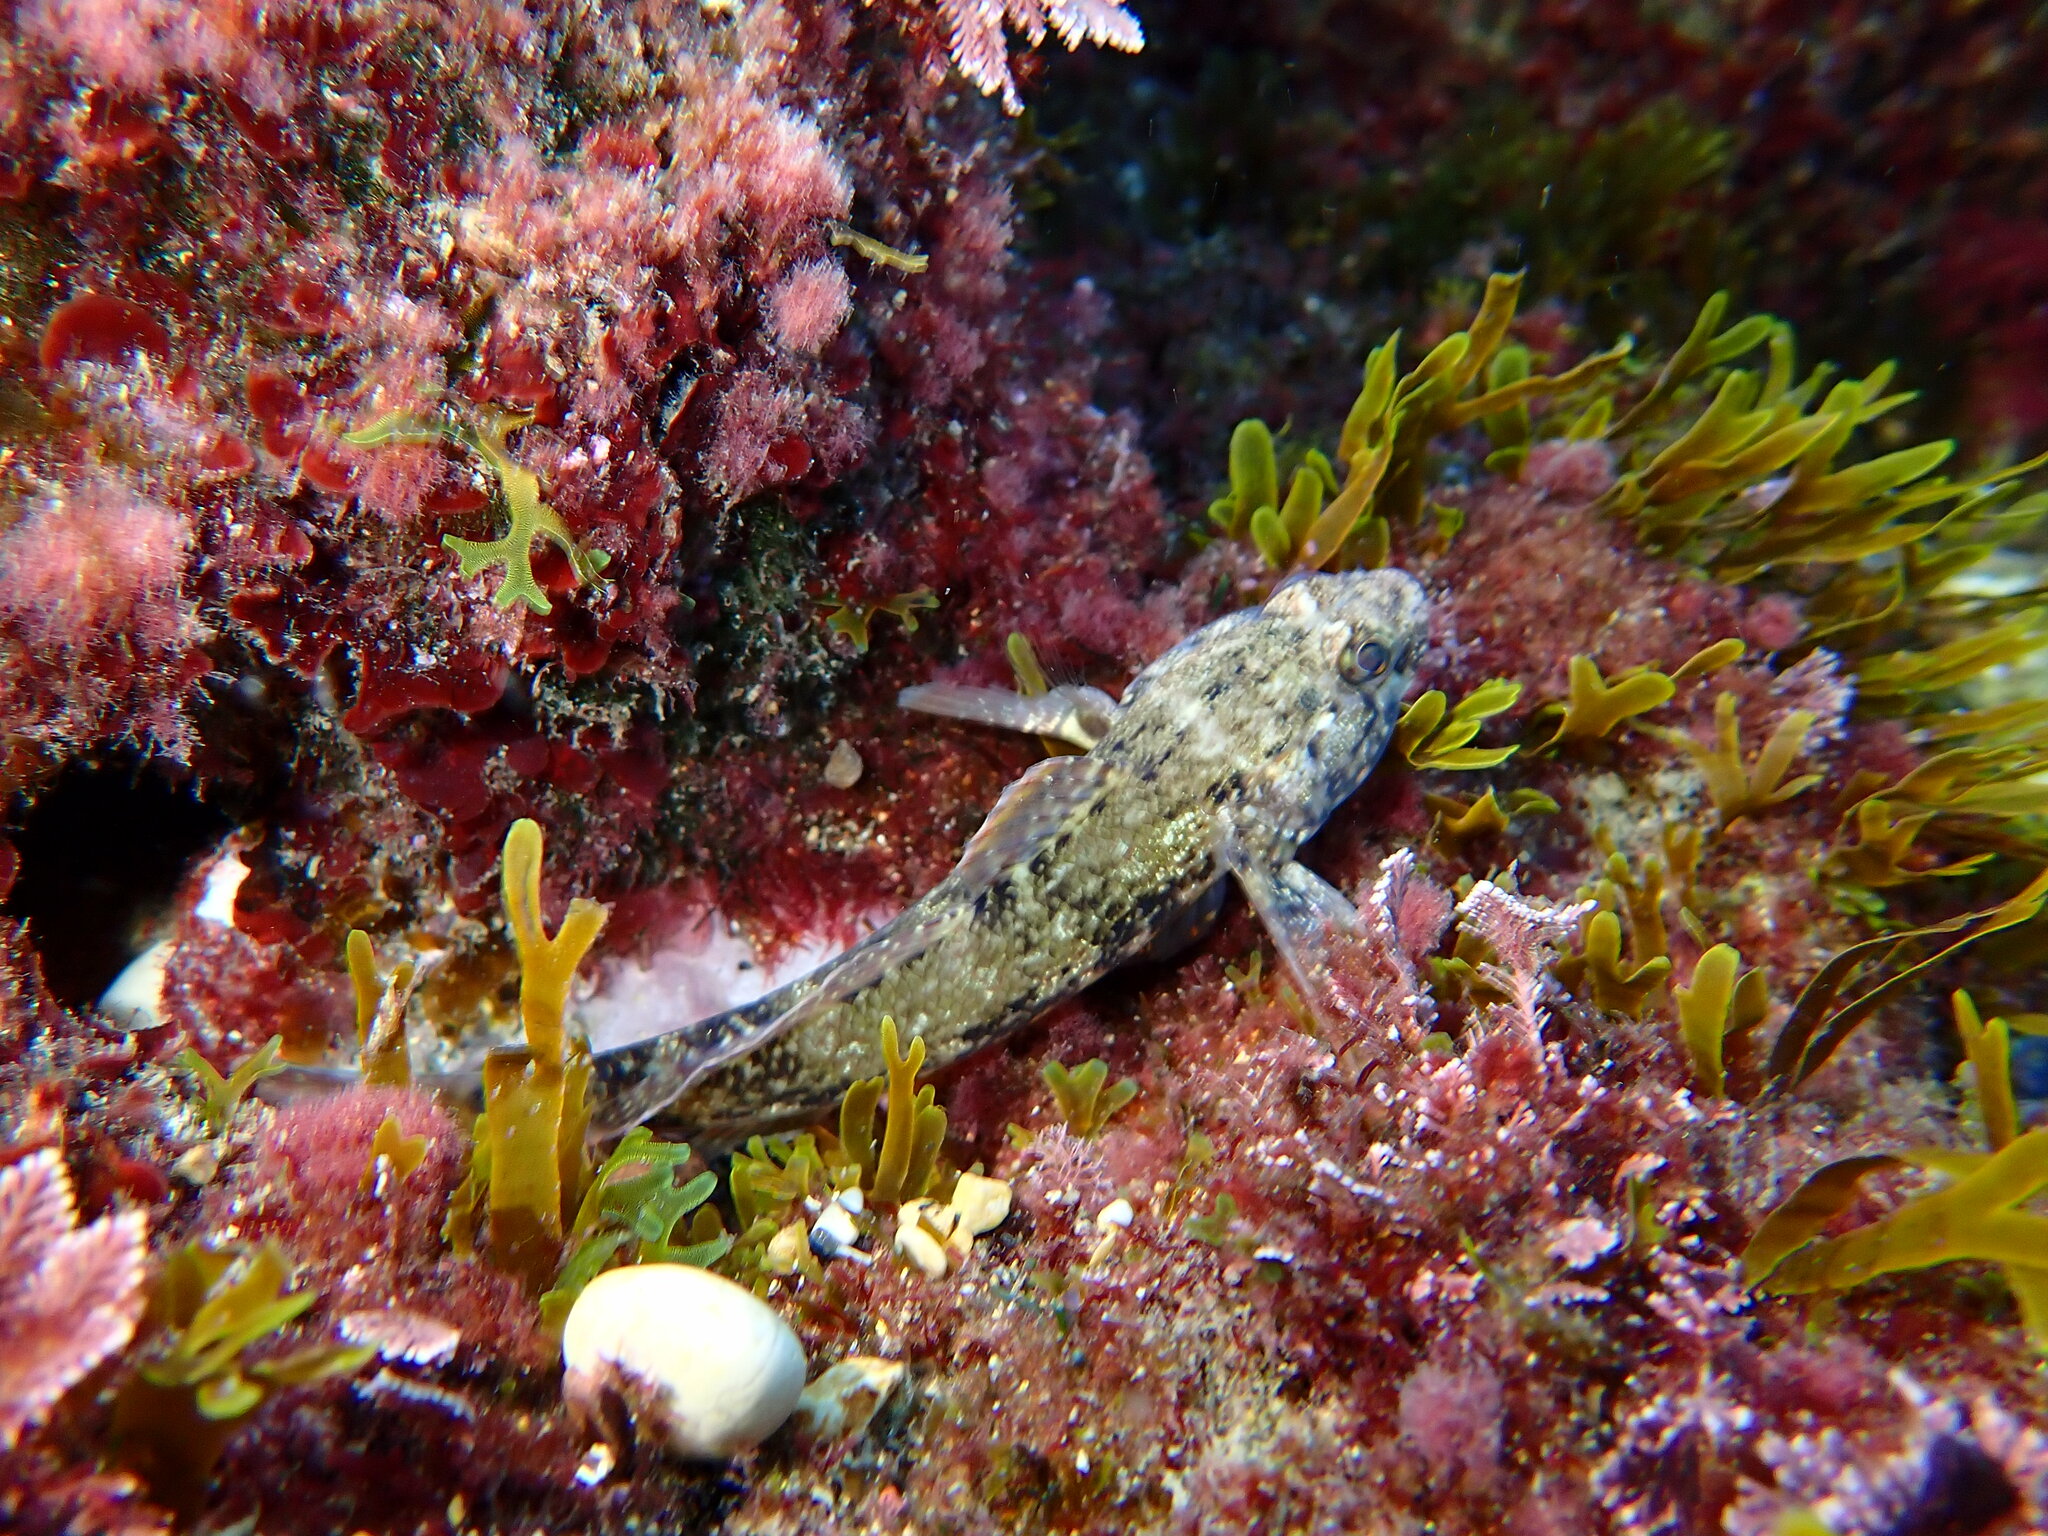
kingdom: Animalia
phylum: Chordata
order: Perciformes
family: Gobiidae
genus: Gobius
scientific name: Gobius paganellus
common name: Rock goby
